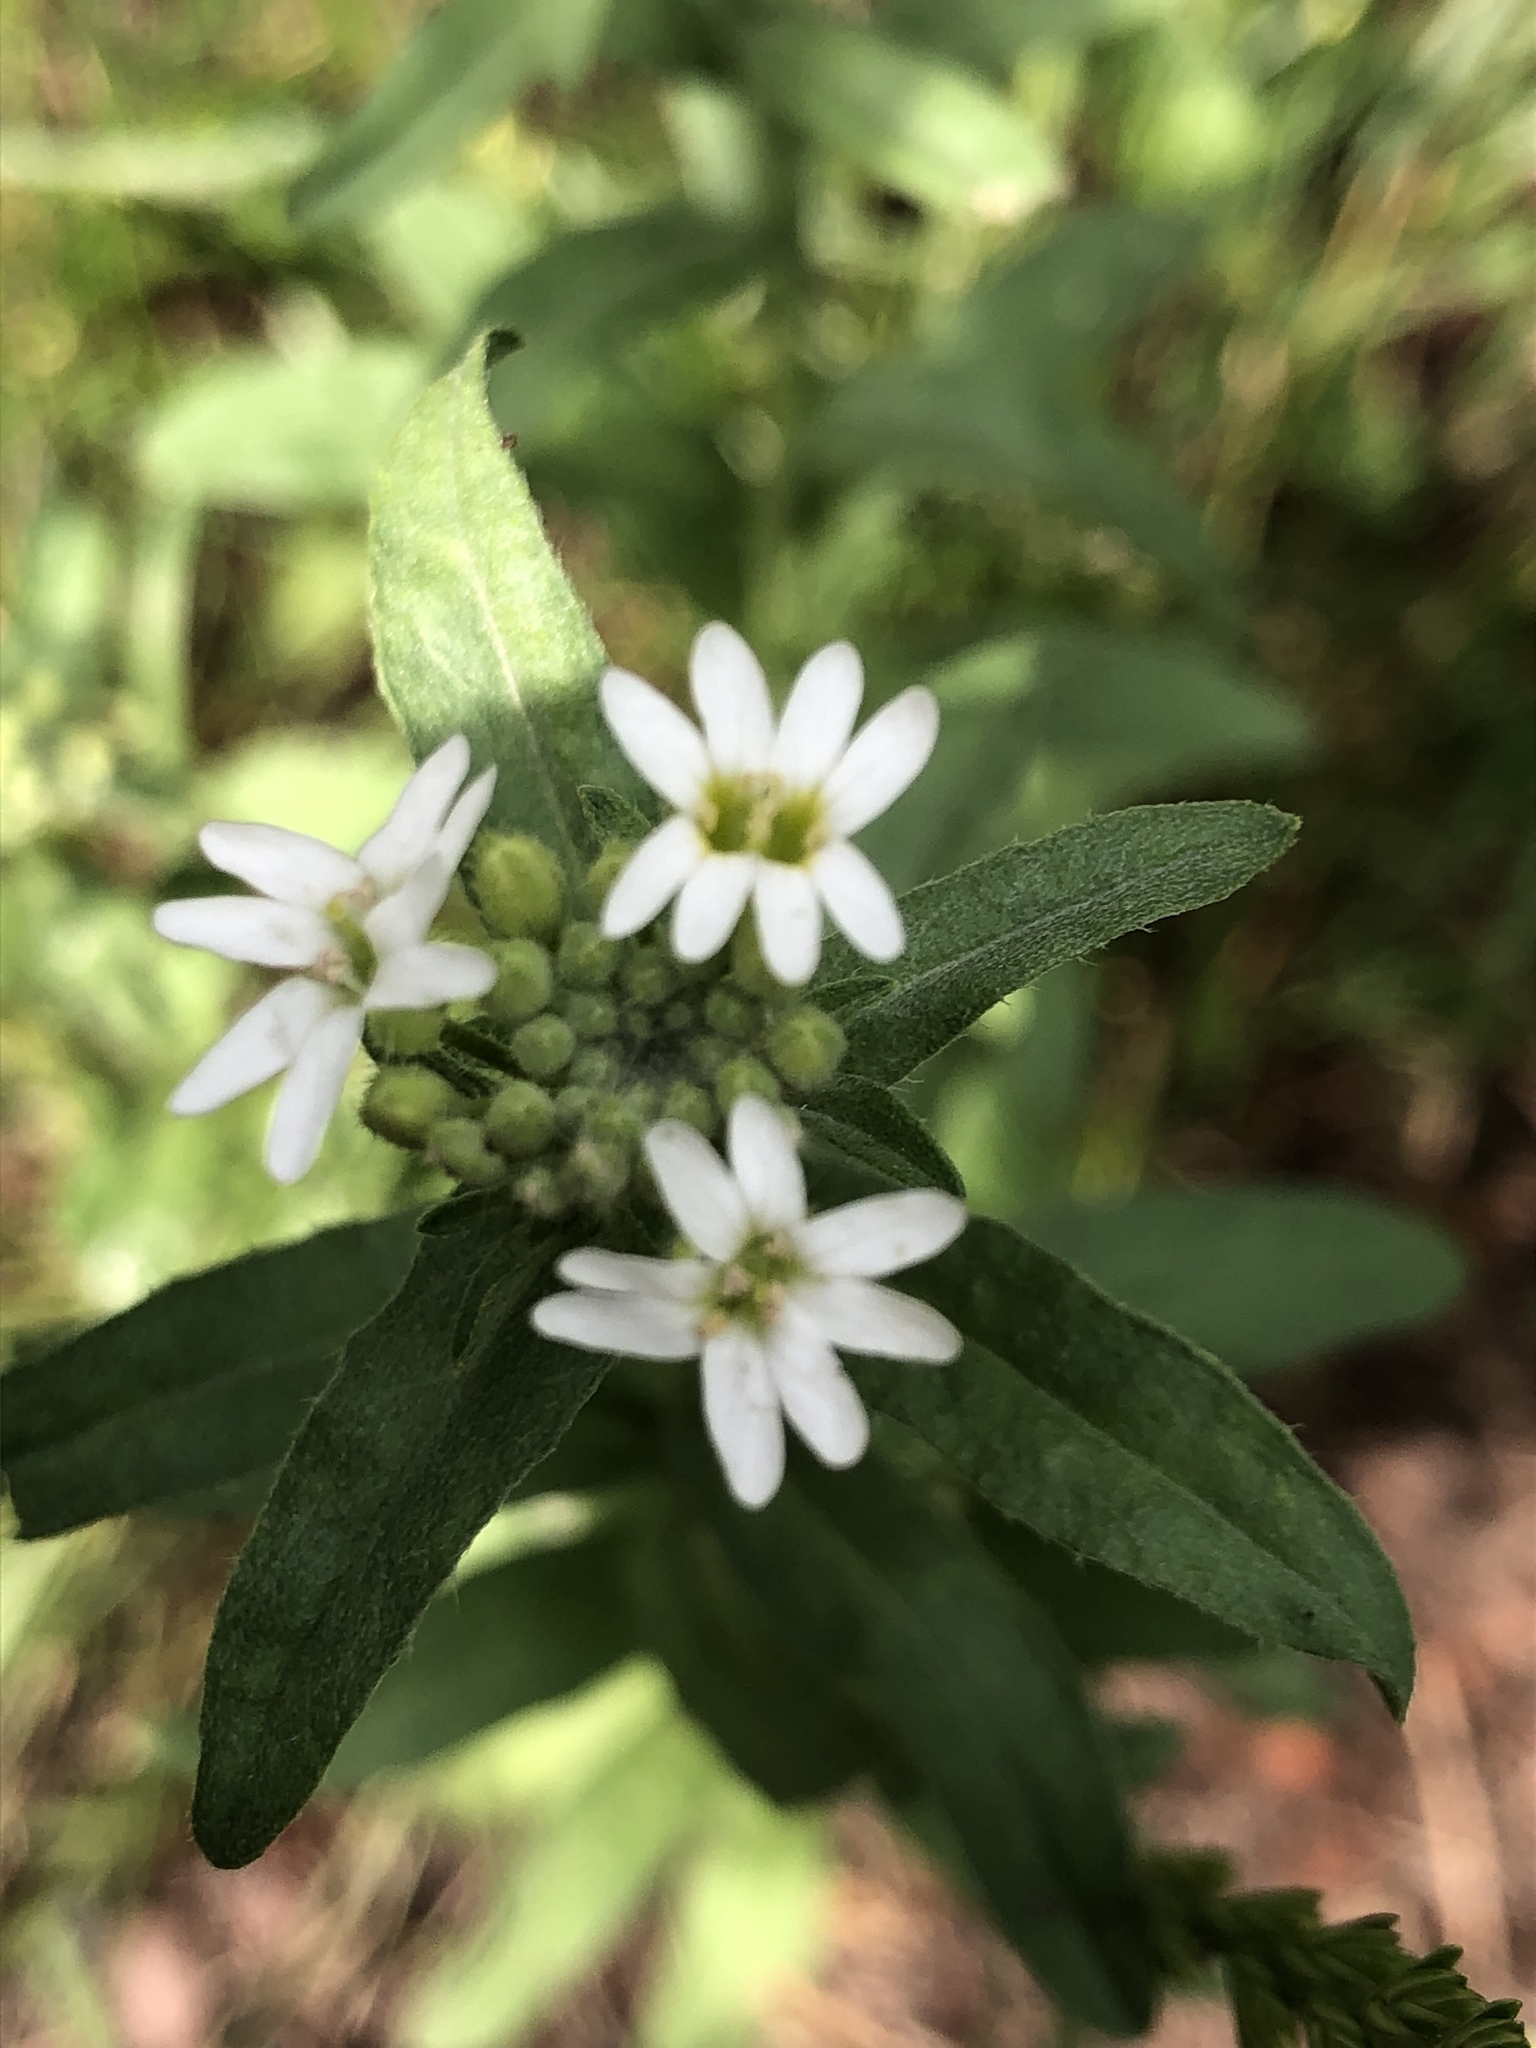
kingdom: Plantae
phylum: Tracheophyta
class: Magnoliopsida
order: Brassicales
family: Brassicaceae
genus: Berteroa
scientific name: Berteroa incana
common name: Hoary alison
